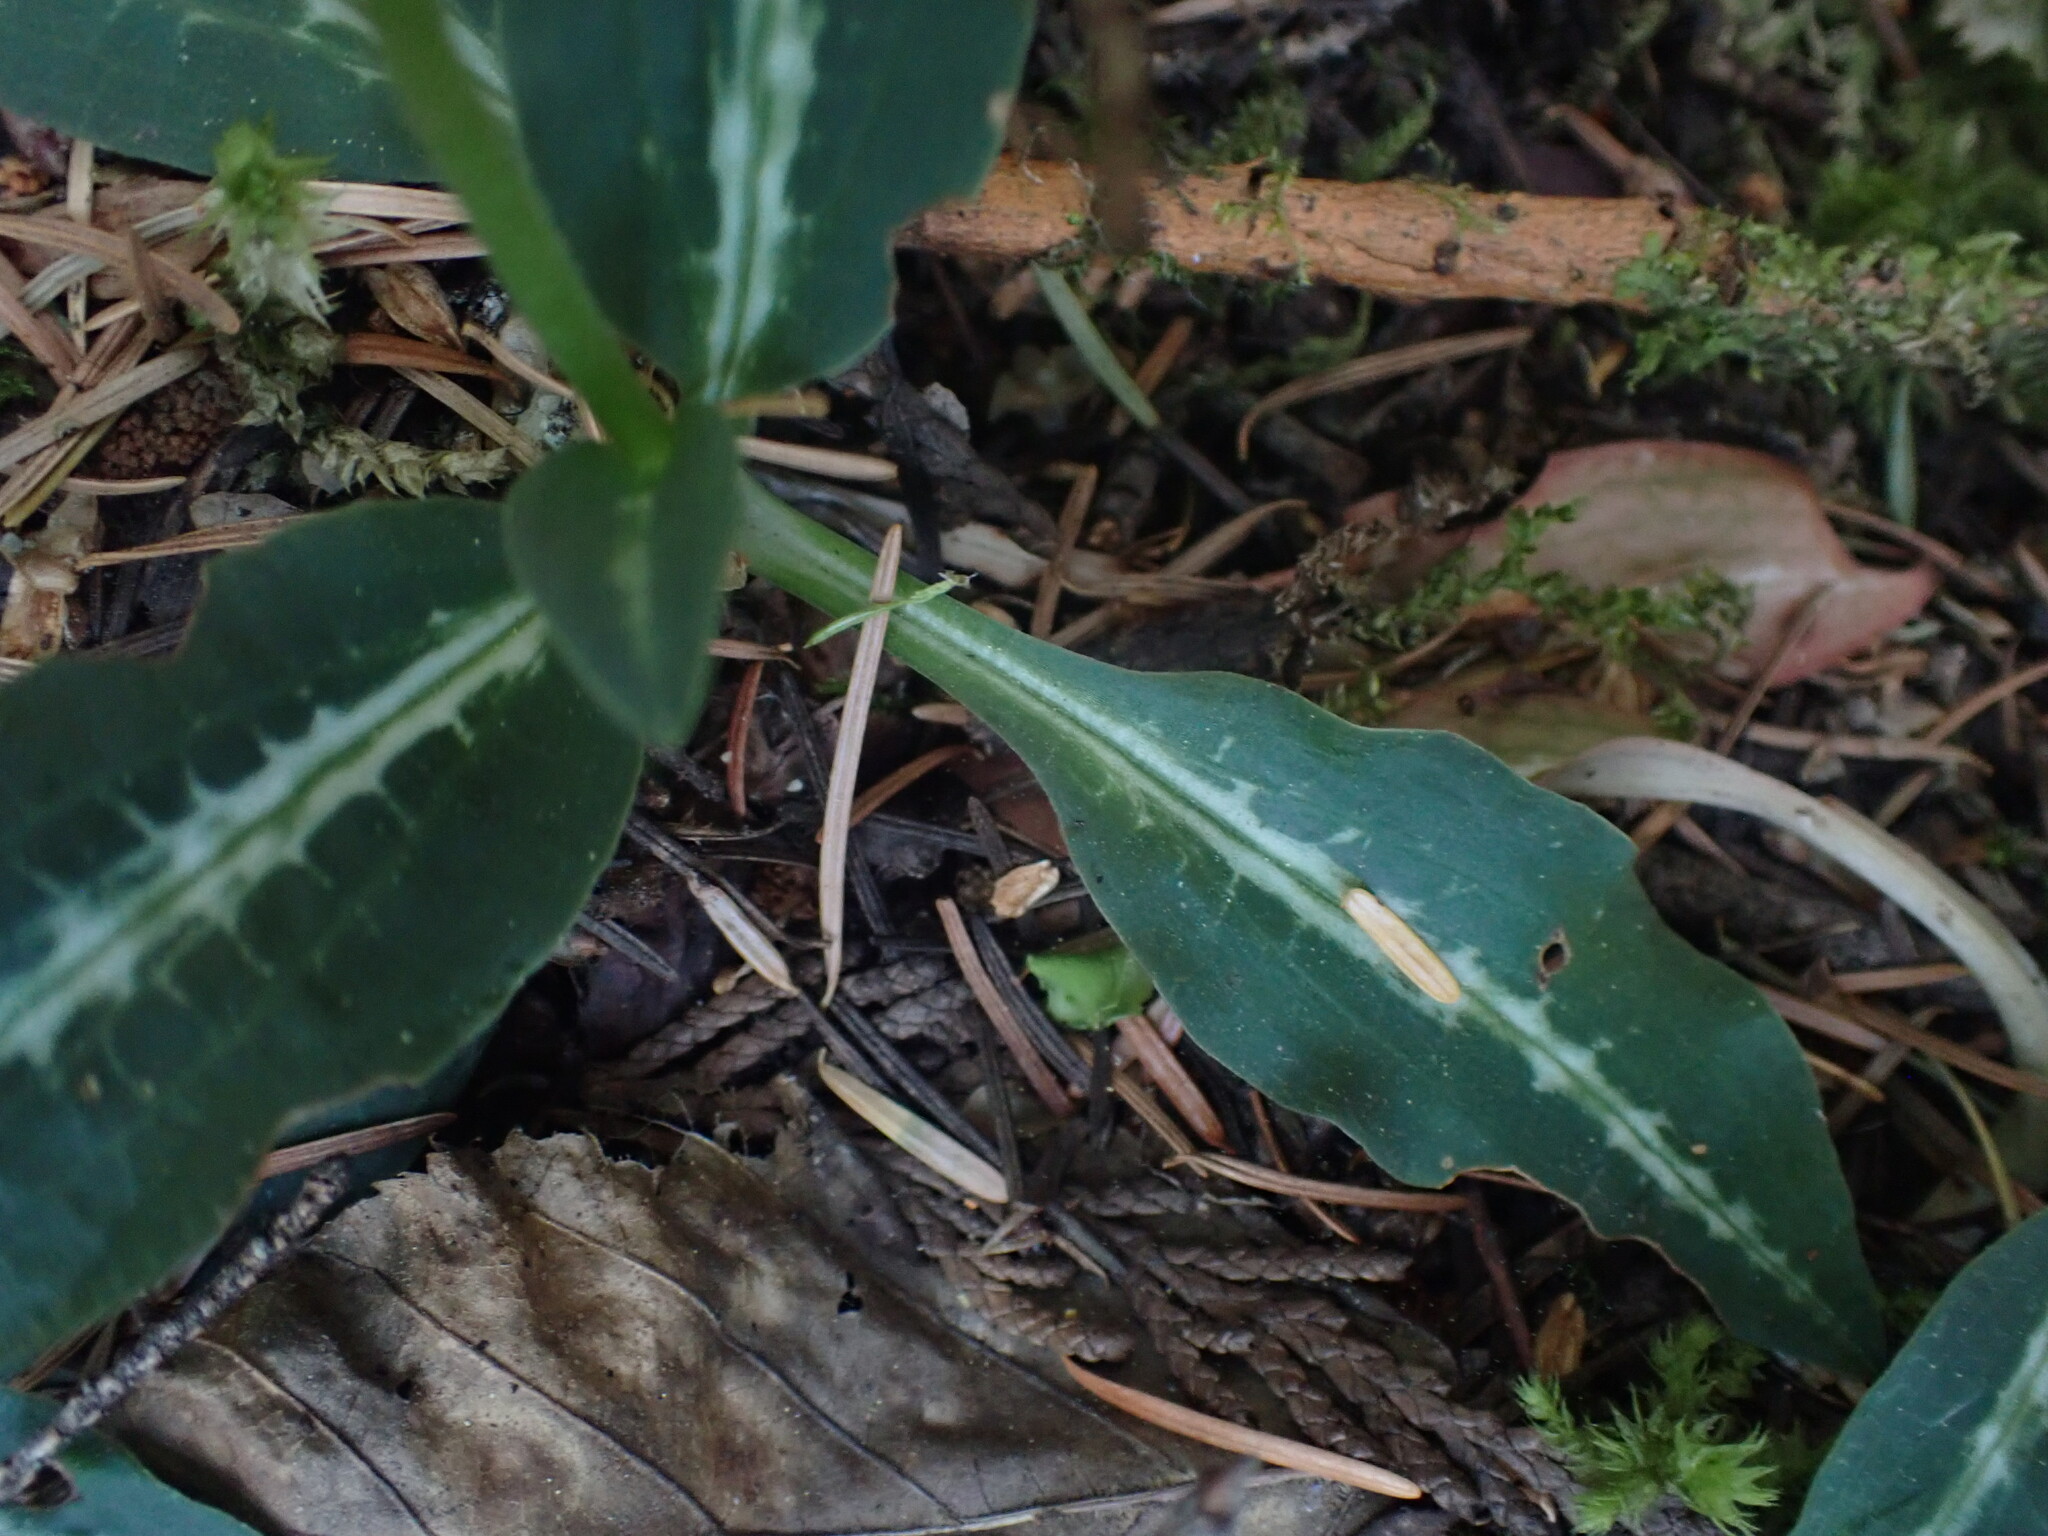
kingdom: Plantae
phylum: Tracheophyta
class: Liliopsida
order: Asparagales
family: Orchidaceae
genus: Goodyera
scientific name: Goodyera oblongifolia
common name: Giant rattlesnake-plantain
